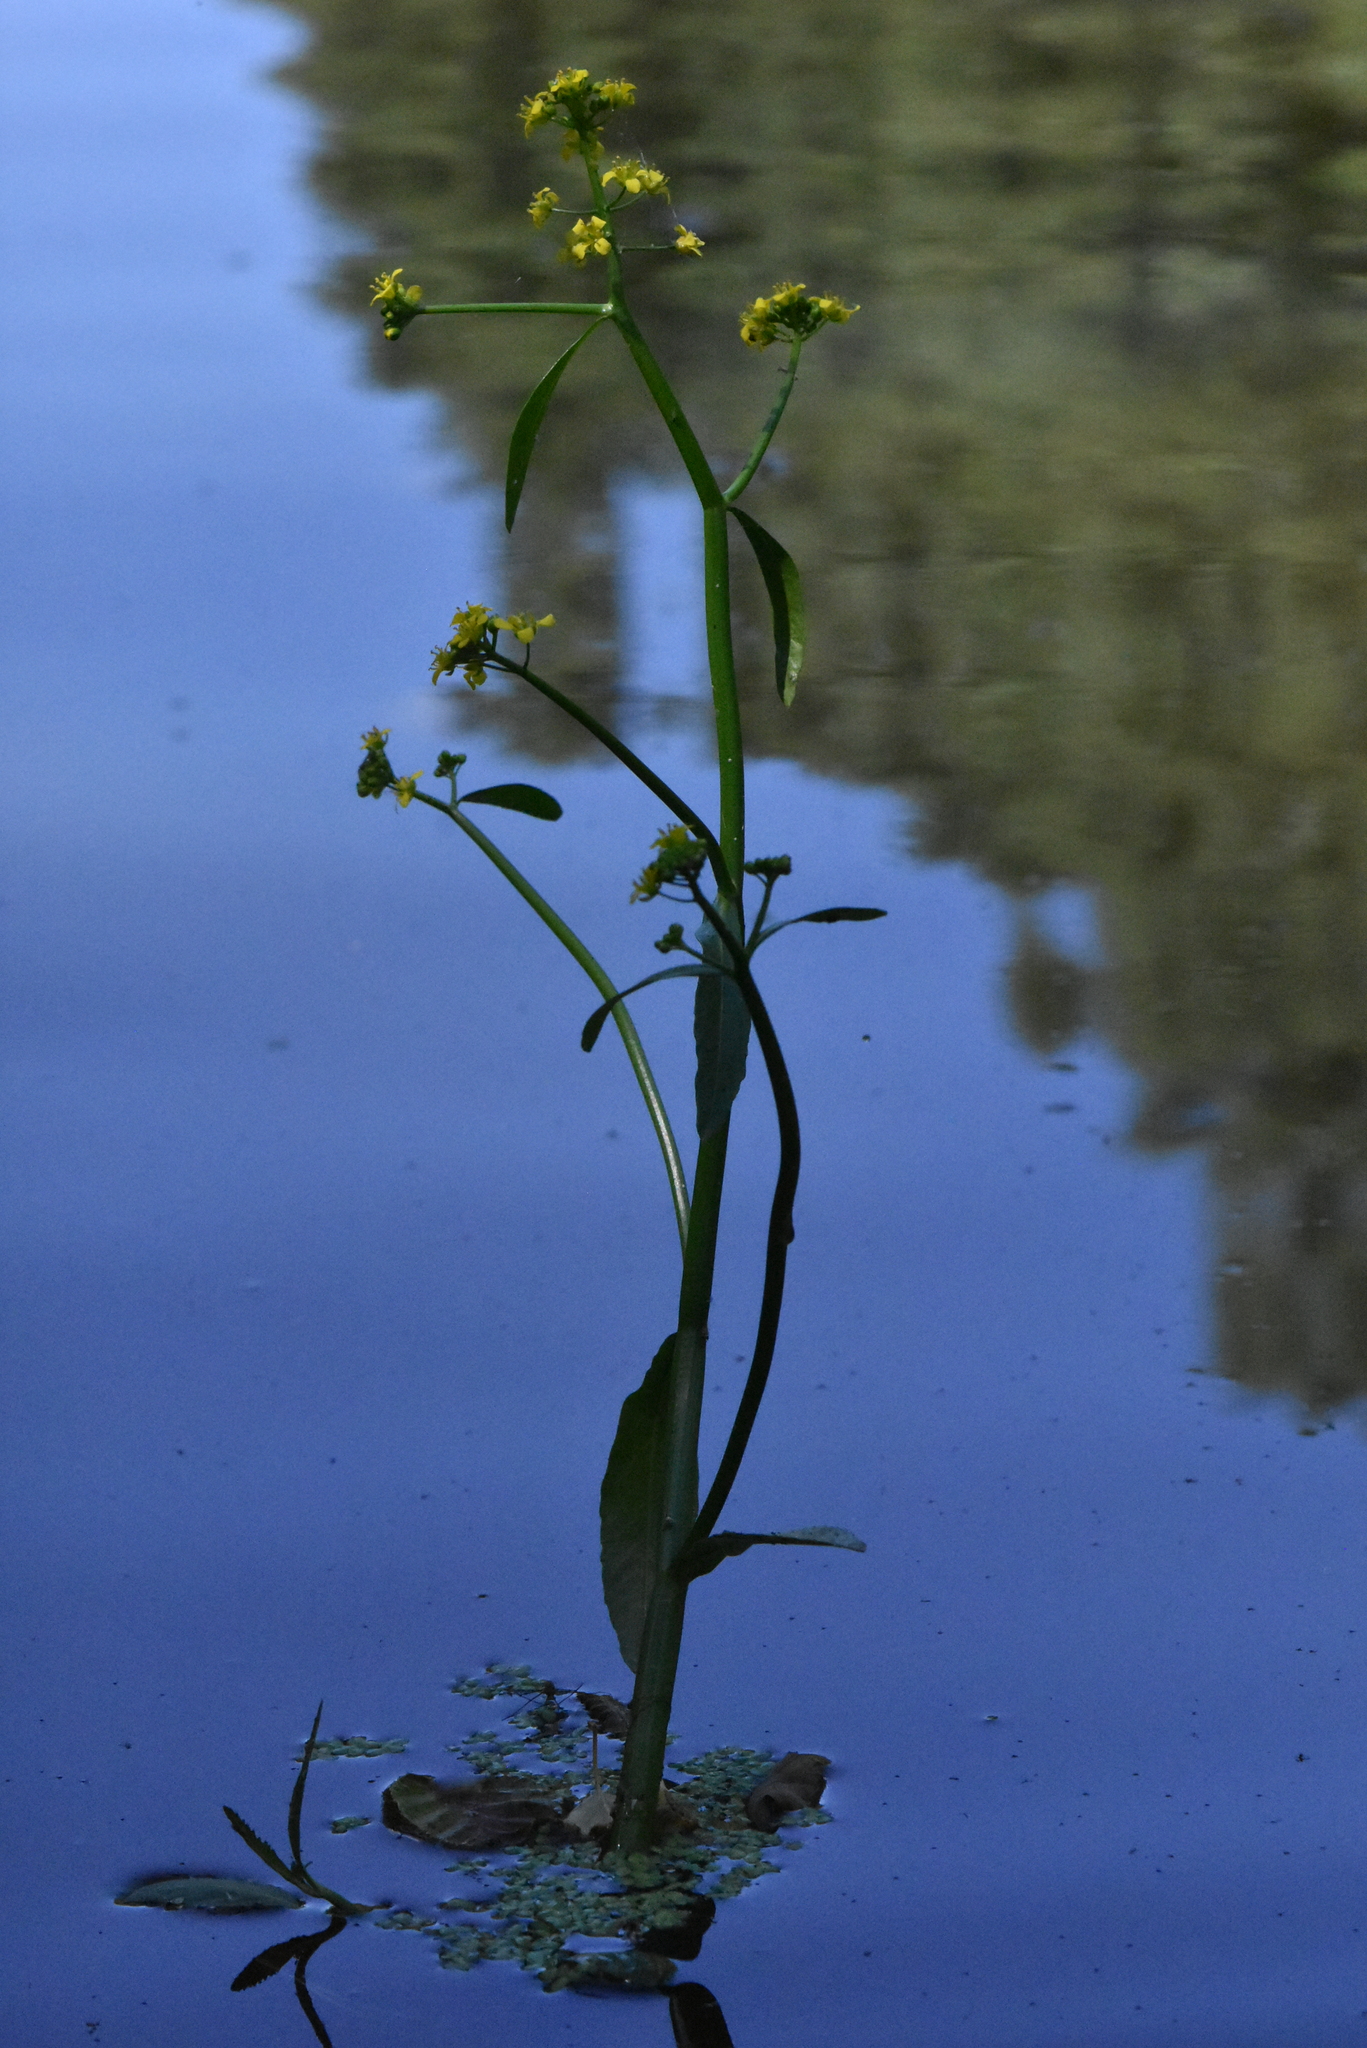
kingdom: Plantae
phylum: Tracheophyta
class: Magnoliopsida
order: Brassicales
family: Brassicaceae
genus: Rorippa
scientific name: Rorippa amphibia
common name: Great yellow-cress
